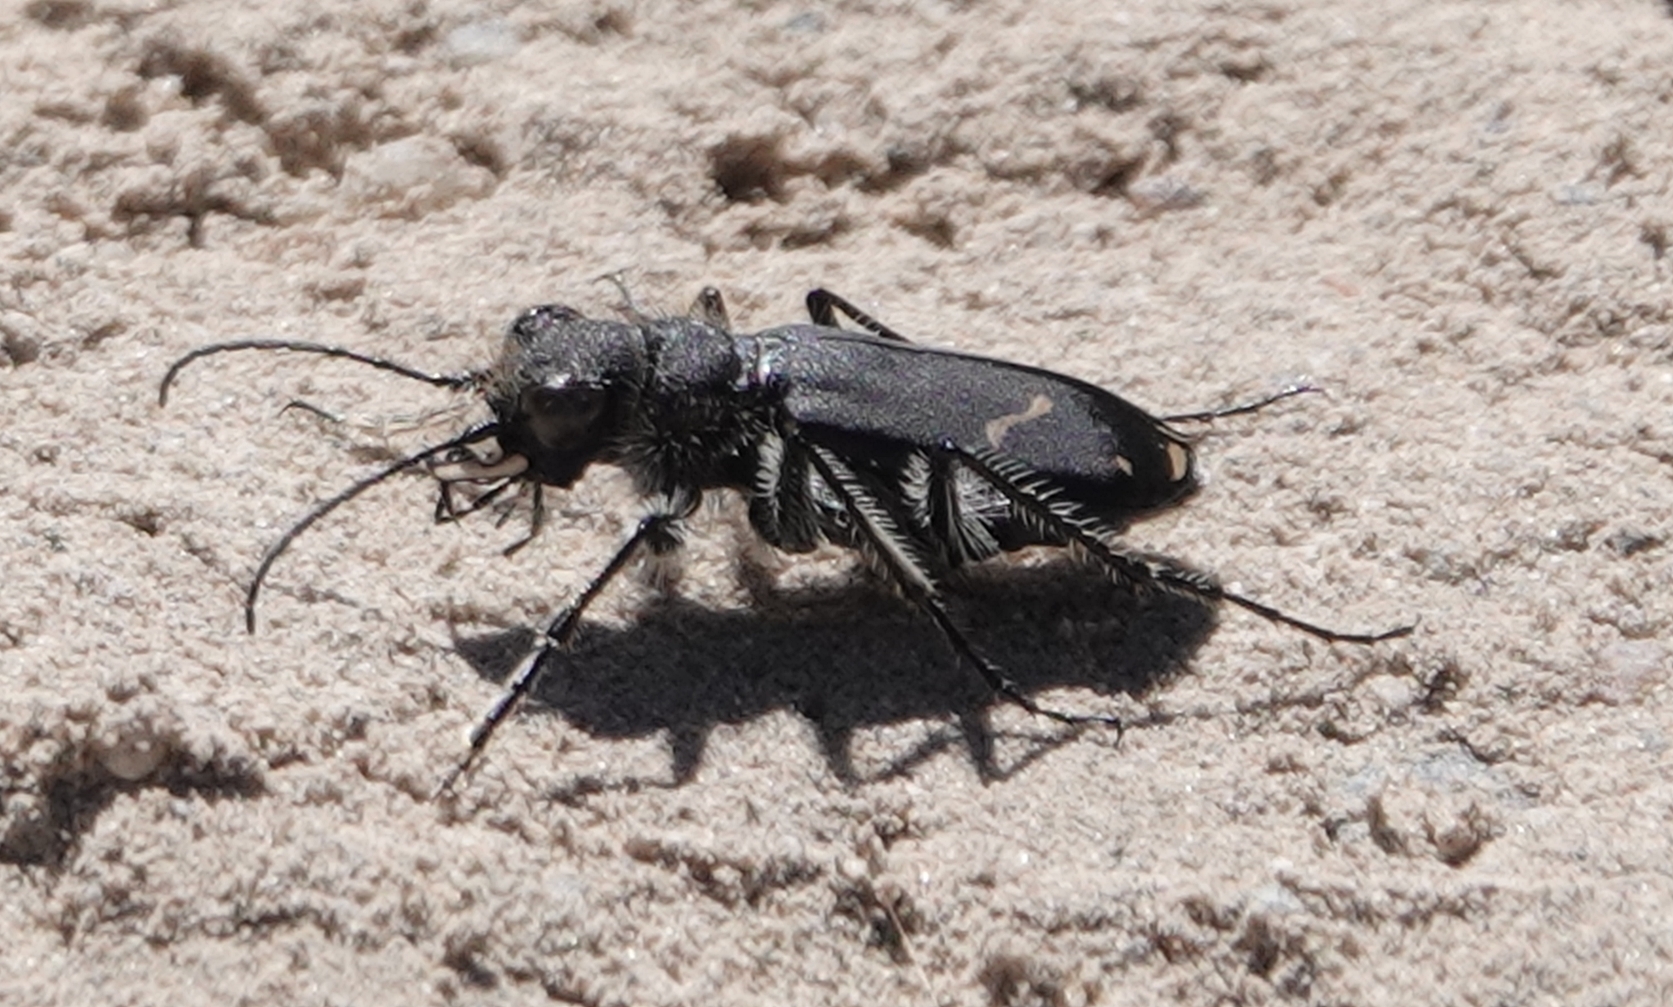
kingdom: Animalia
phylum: Arthropoda
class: Insecta
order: Coleoptera
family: Carabidae
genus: Cicindela
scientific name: Cicindela purpurea
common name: Cow path tiger beetle
